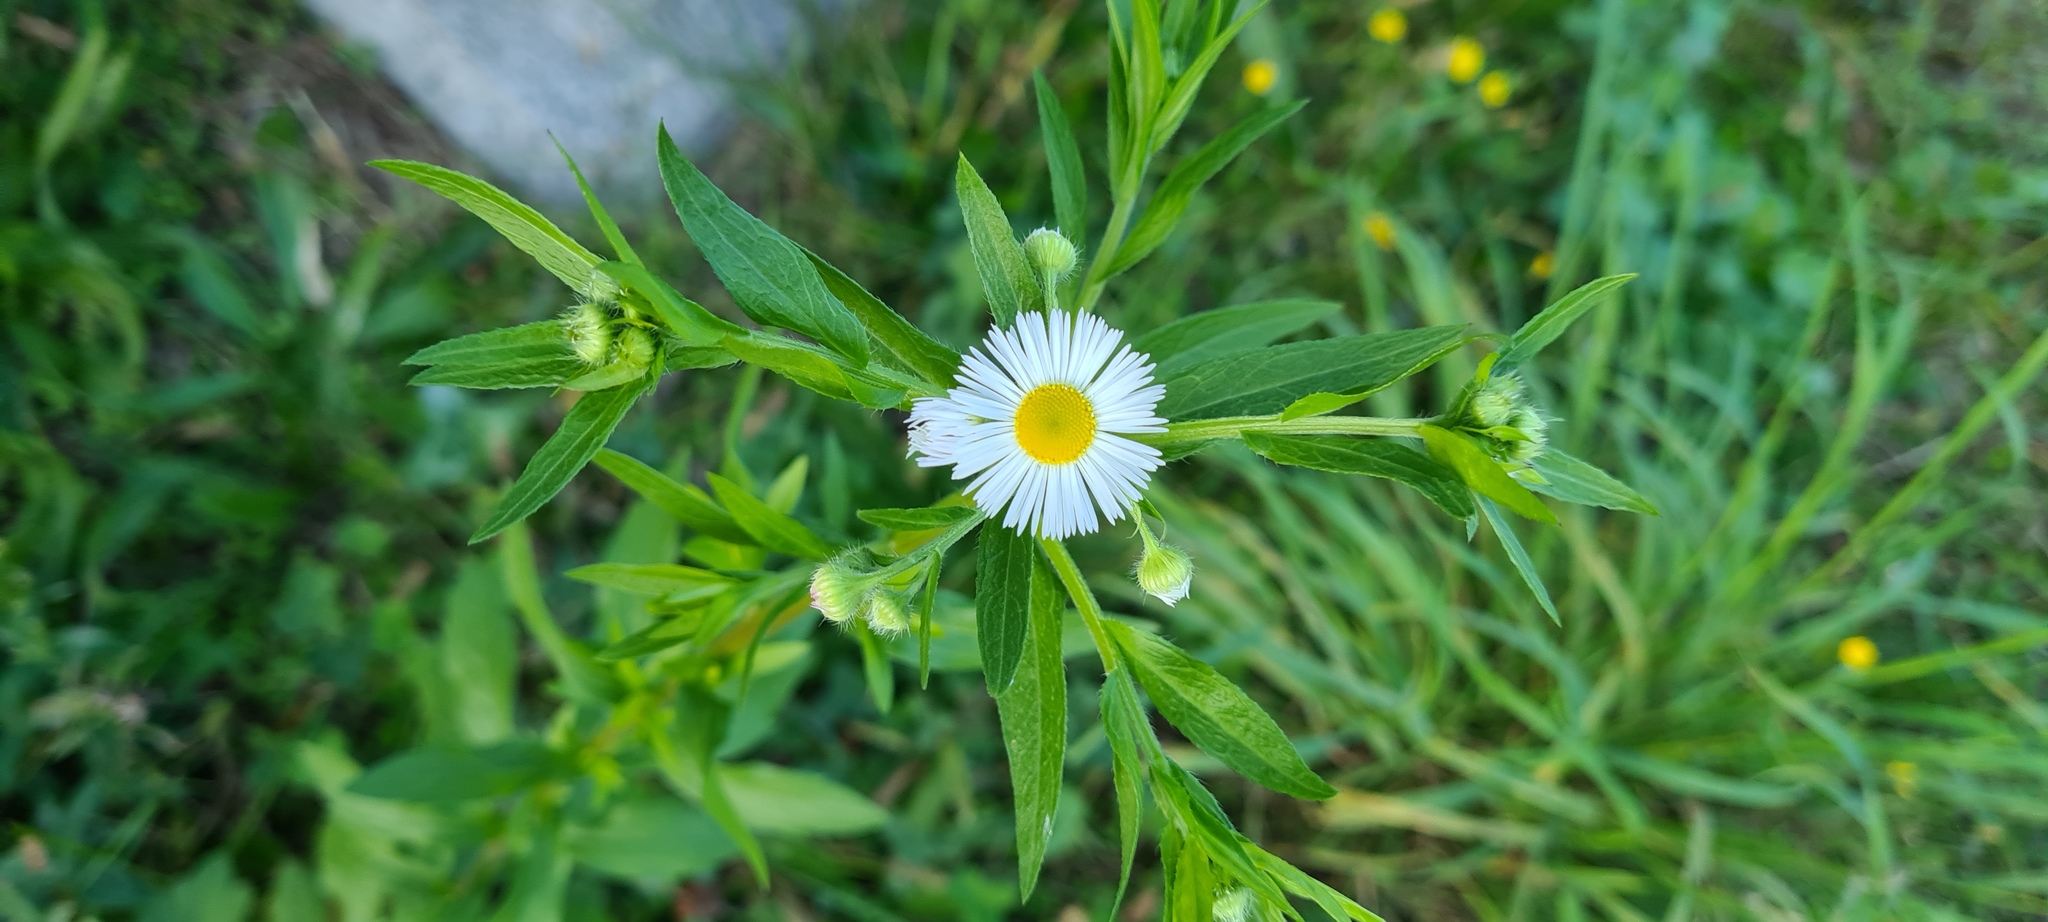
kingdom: Plantae
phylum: Tracheophyta
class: Magnoliopsida
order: Asterales
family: Asteraceae
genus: Erigeron
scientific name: Erigeron annuus
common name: Tall fleabane
